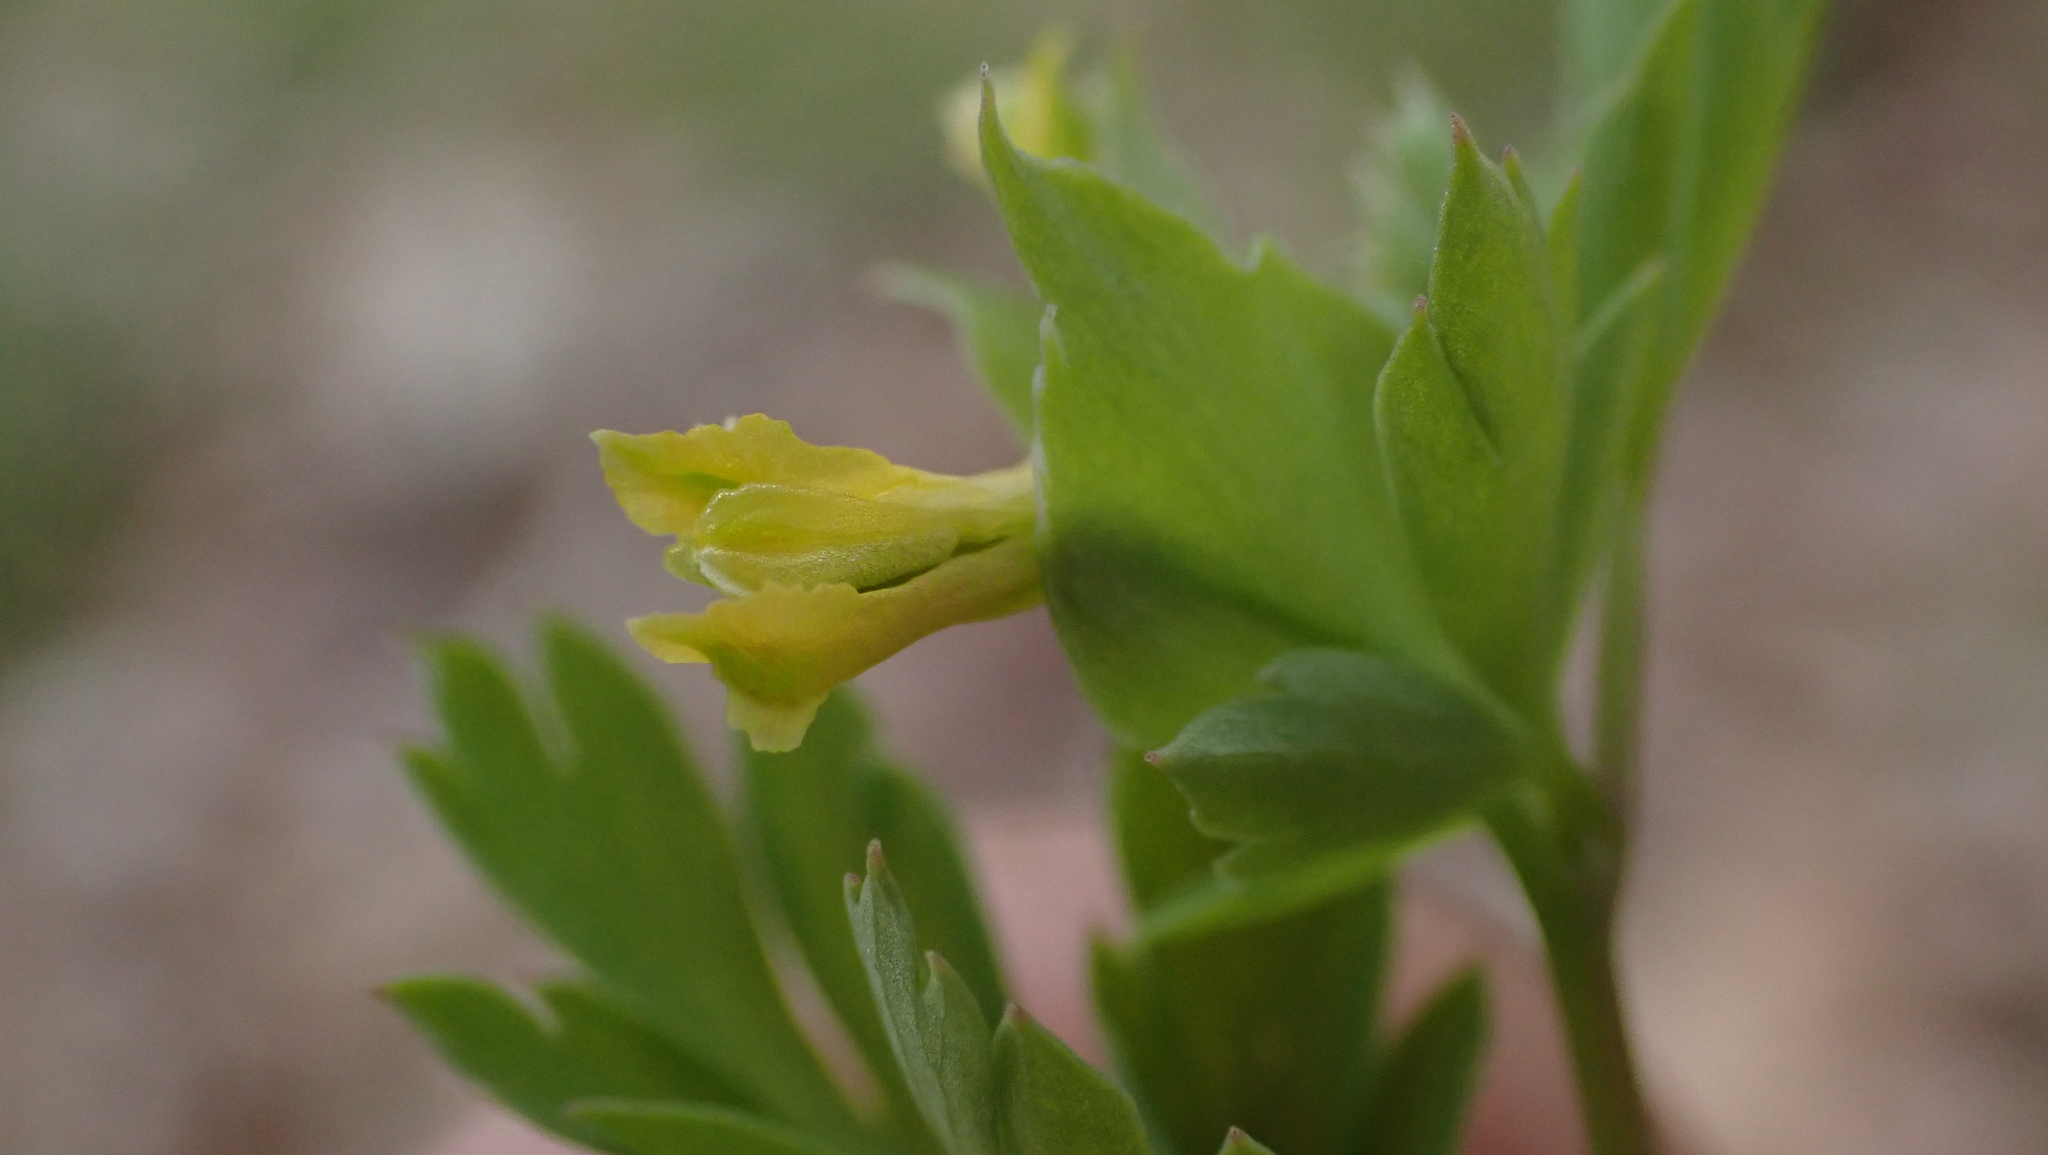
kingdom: Plantae
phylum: Tracheophyta
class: Magnoliopsida
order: Ranunculales
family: Papaveraceae
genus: Corydalis
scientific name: Corydalis flavula
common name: Yellow corydalis
